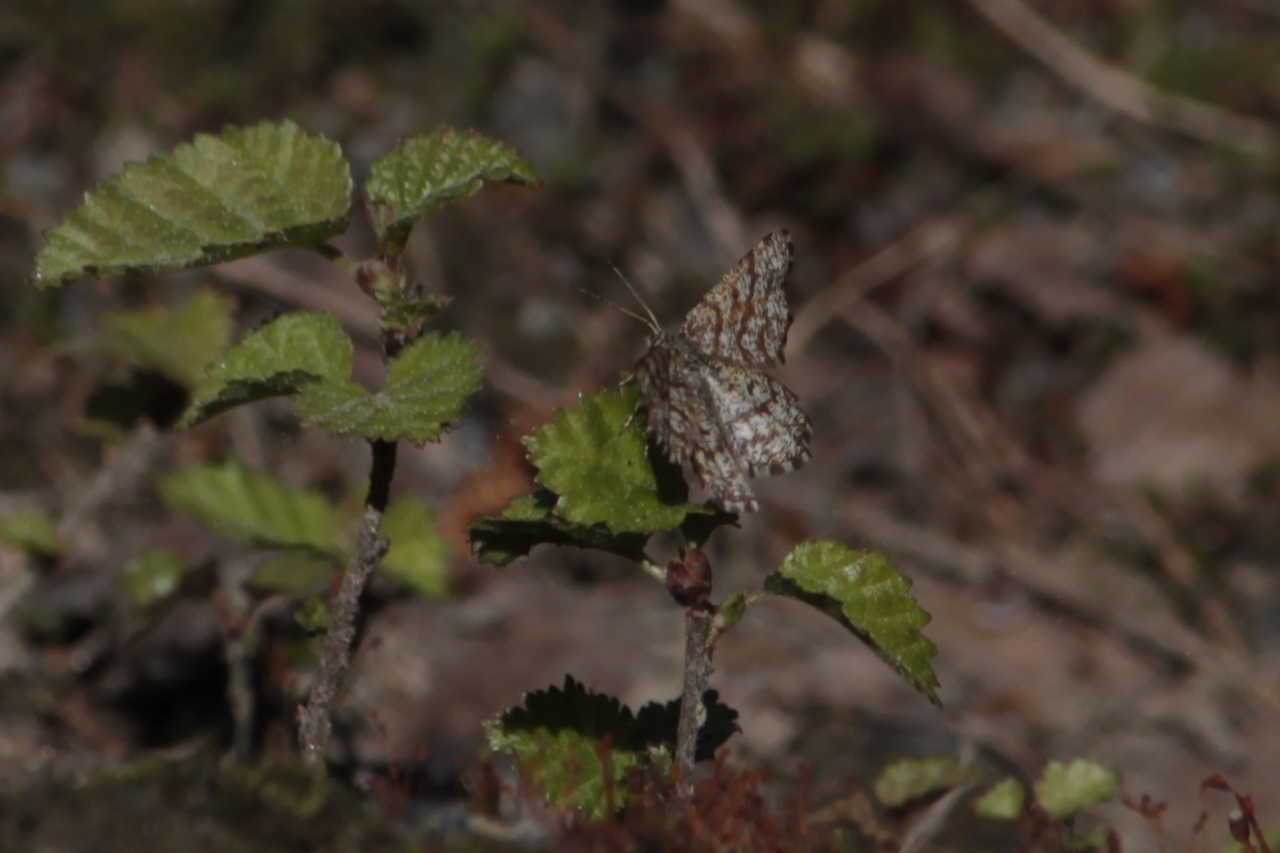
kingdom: Animalia
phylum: Arthropoda
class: Insecta
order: Lepidoptera
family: Geometridae
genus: Ematurga
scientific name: Ematurga atomaria
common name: Common heath
